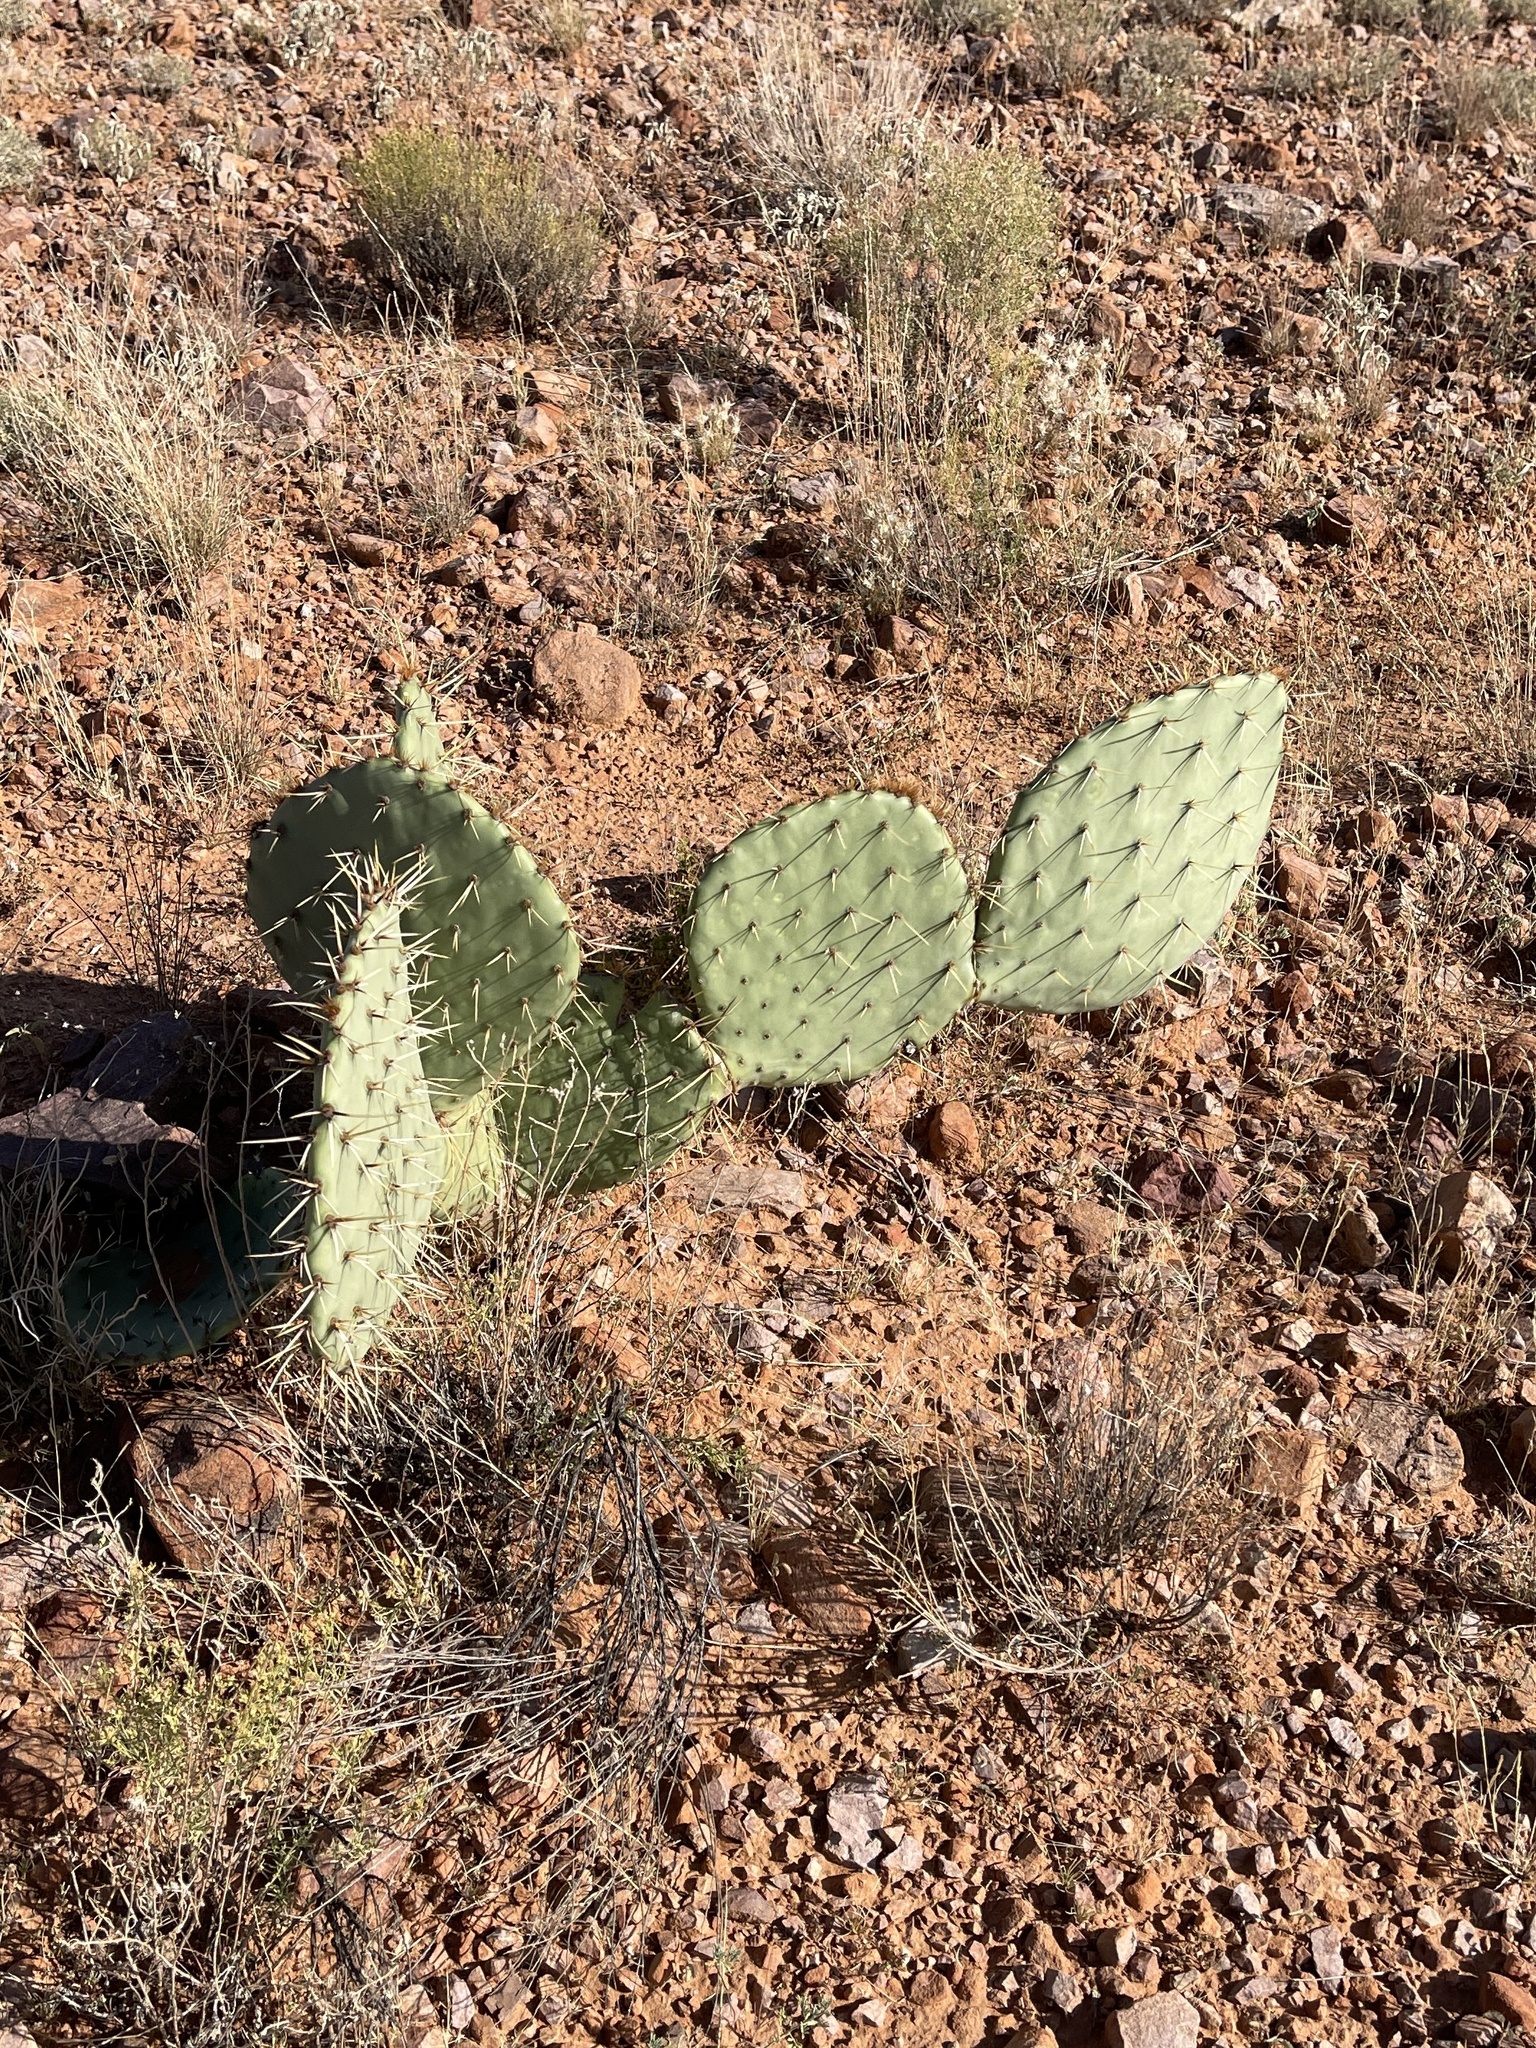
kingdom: Plantae
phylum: Tracheophyta
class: Magnoliopsida
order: Caryophyllales
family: Cactaceae
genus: Opuntia
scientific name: Opuntia engelmannii
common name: Cactus-apple
